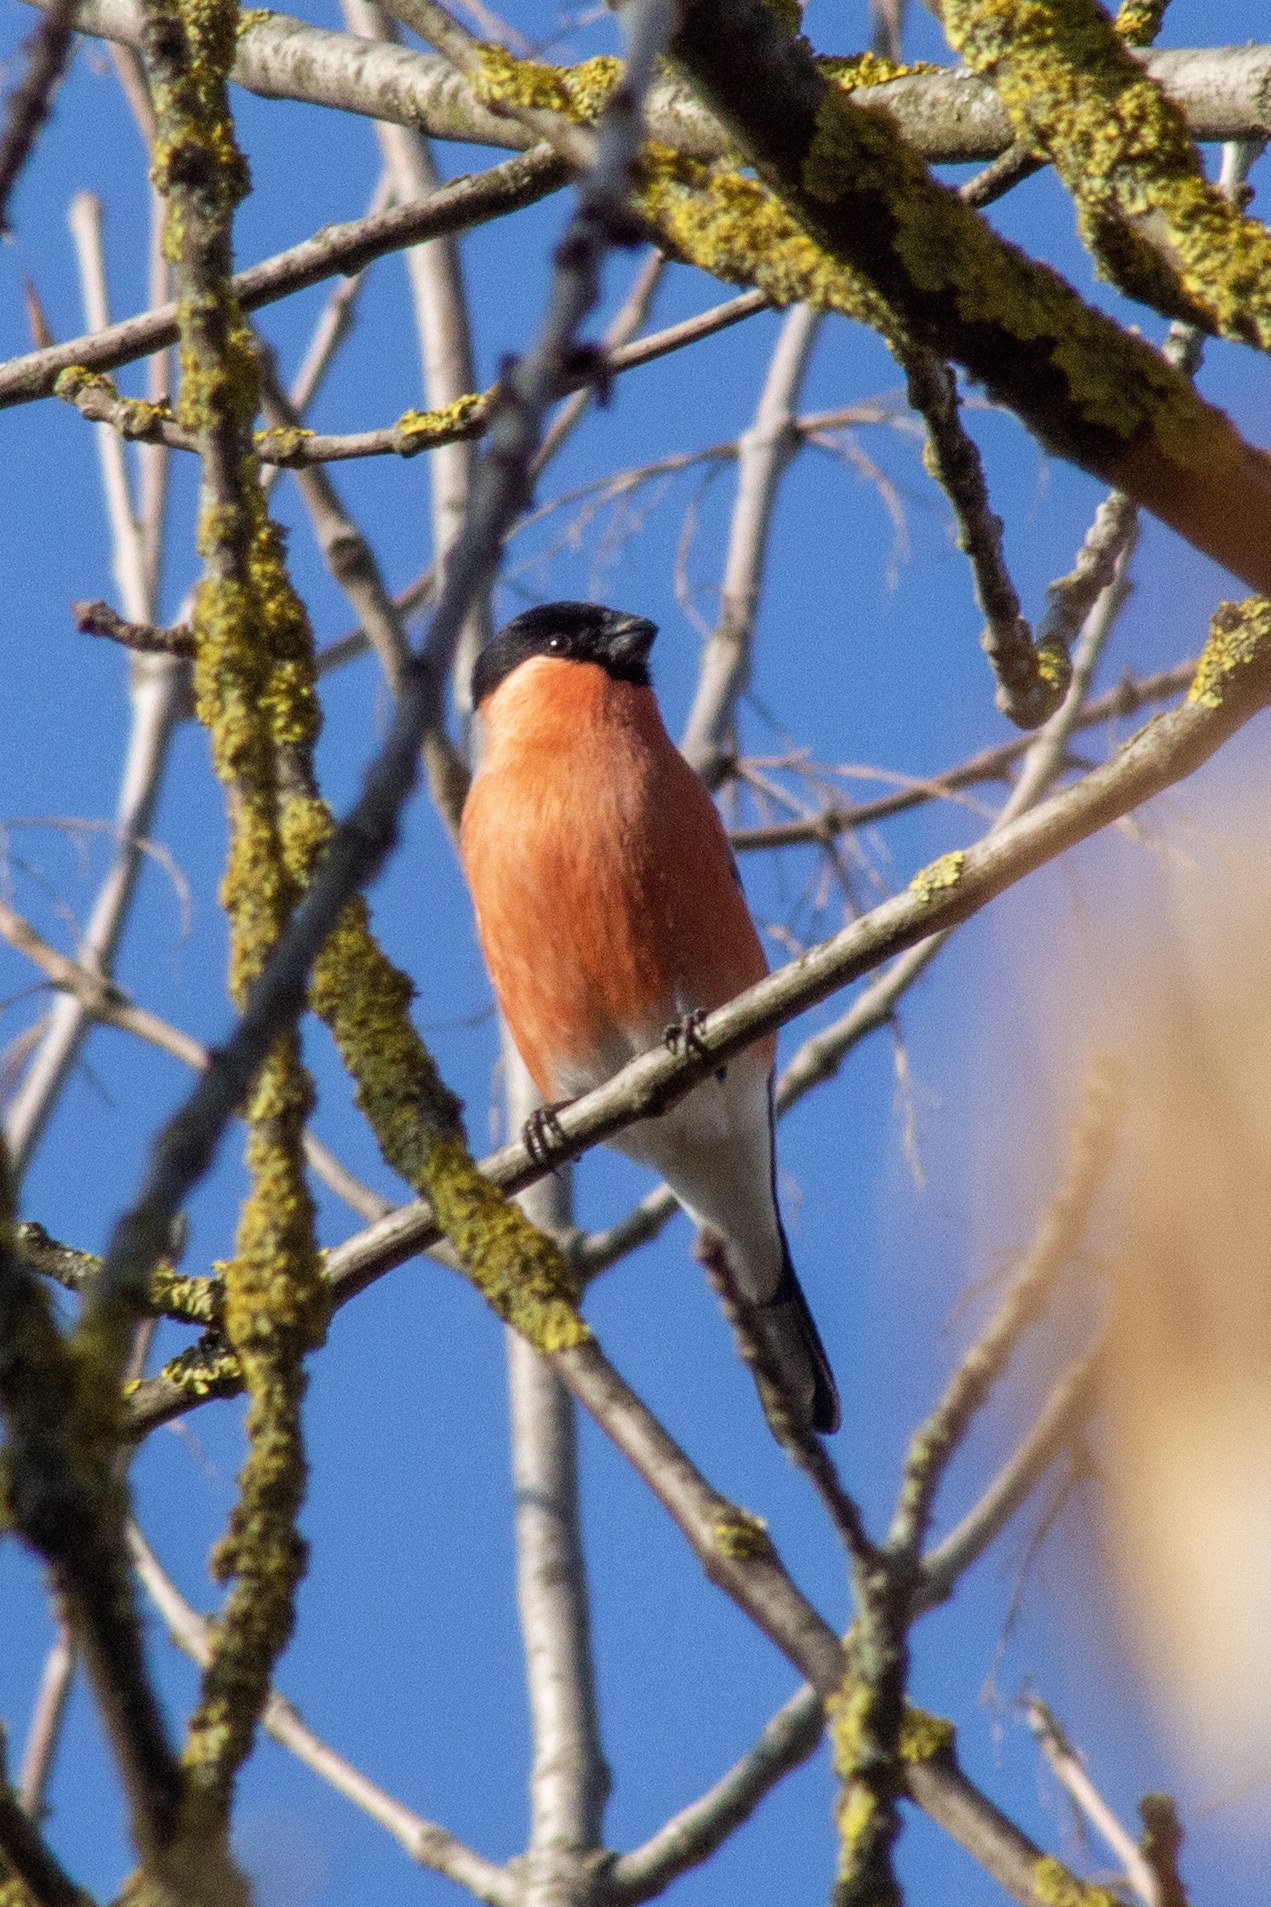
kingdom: Animalia
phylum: Chordata
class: Aves
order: Passeriformes
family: Fringillidae
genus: Pyrrhula
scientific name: Pyrrhula pyrrhula
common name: Eurasian bullfinch
